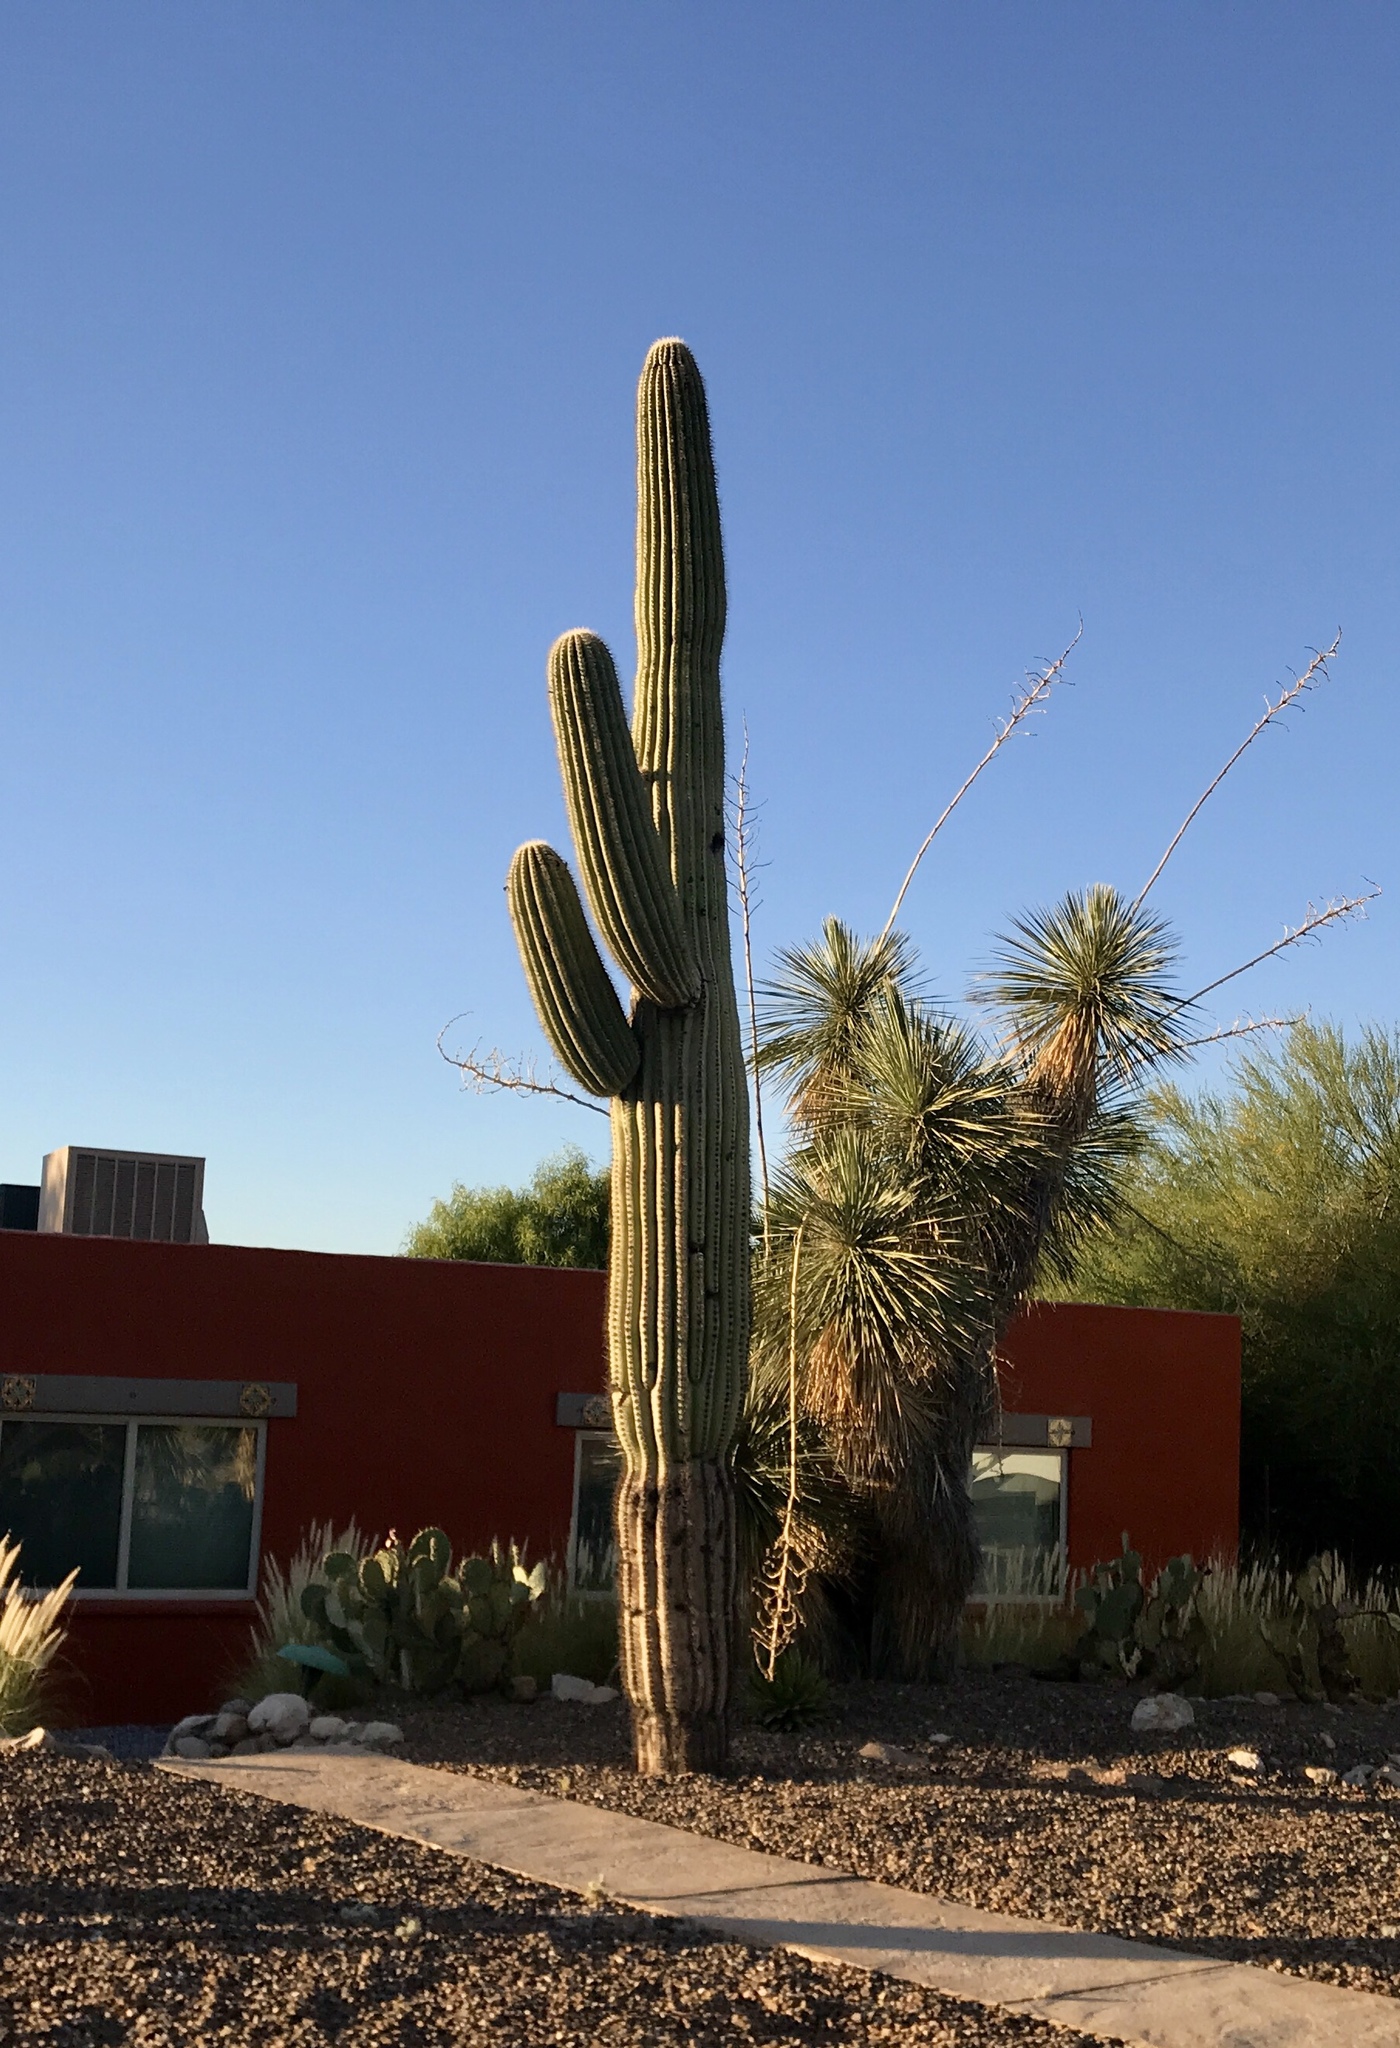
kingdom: Plantae
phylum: Tracheophyta
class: Magnoliopsida
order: Caryophyllales
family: Cactaceae
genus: Carnegiea
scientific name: Carnegiea gigantea
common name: Saguaro
